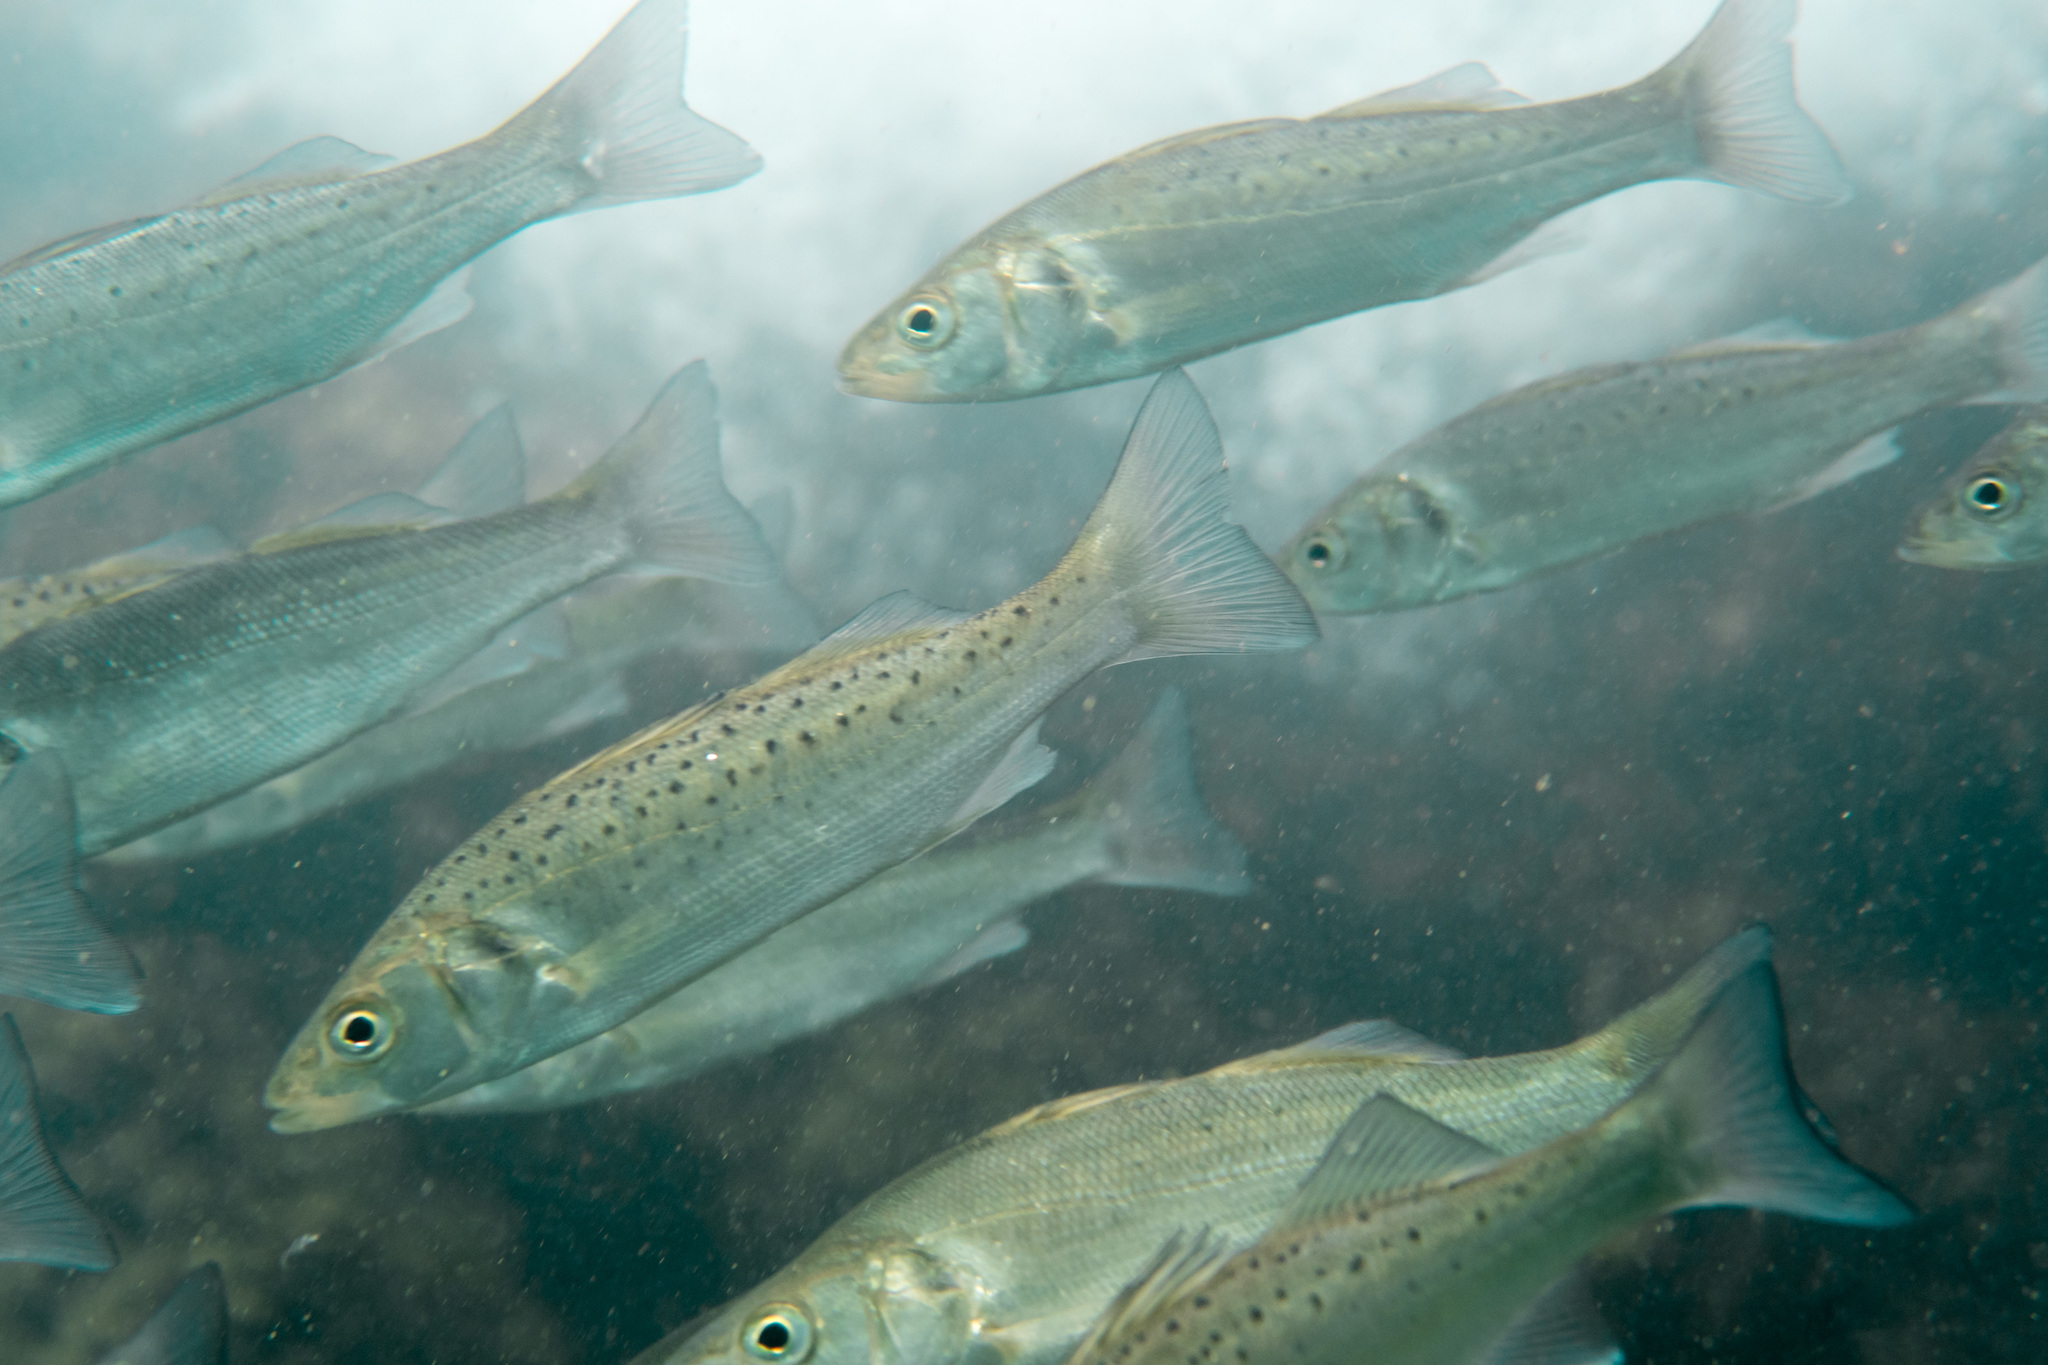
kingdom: Animalia
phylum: Chordata
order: Perciformes
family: Moronidae
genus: Dicentrarchus
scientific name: Dicentrarchus labrax
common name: European seabass
